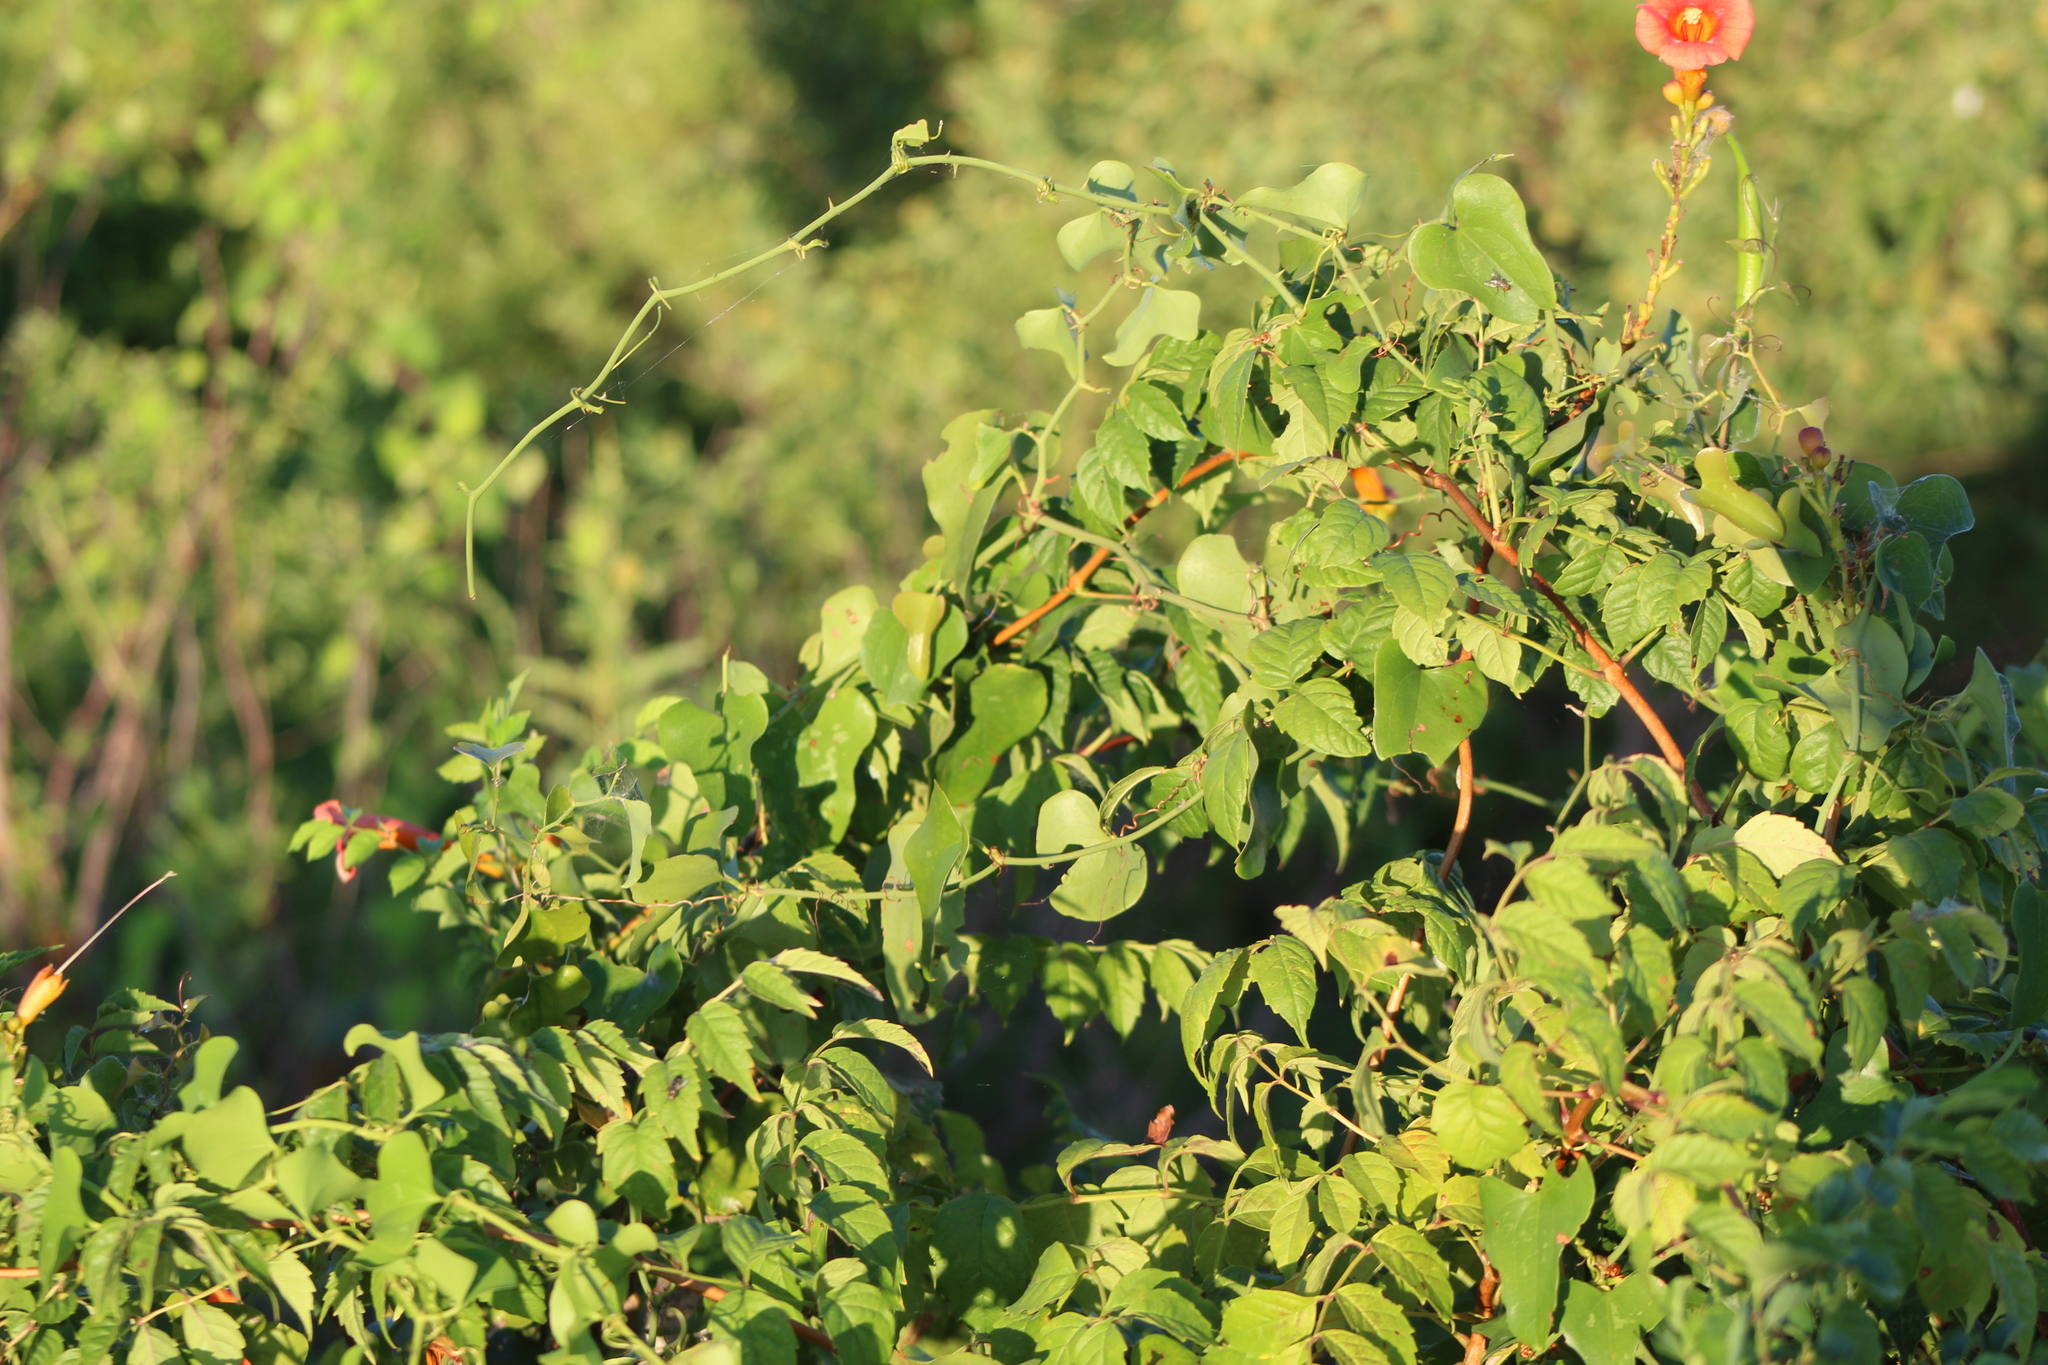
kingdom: Plantae
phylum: Tracheophyta
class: Magnoliopsida
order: Lamiales
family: Bignoniaceae
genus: Campsis
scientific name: Campsis radicans
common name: Trumpet-creeper
